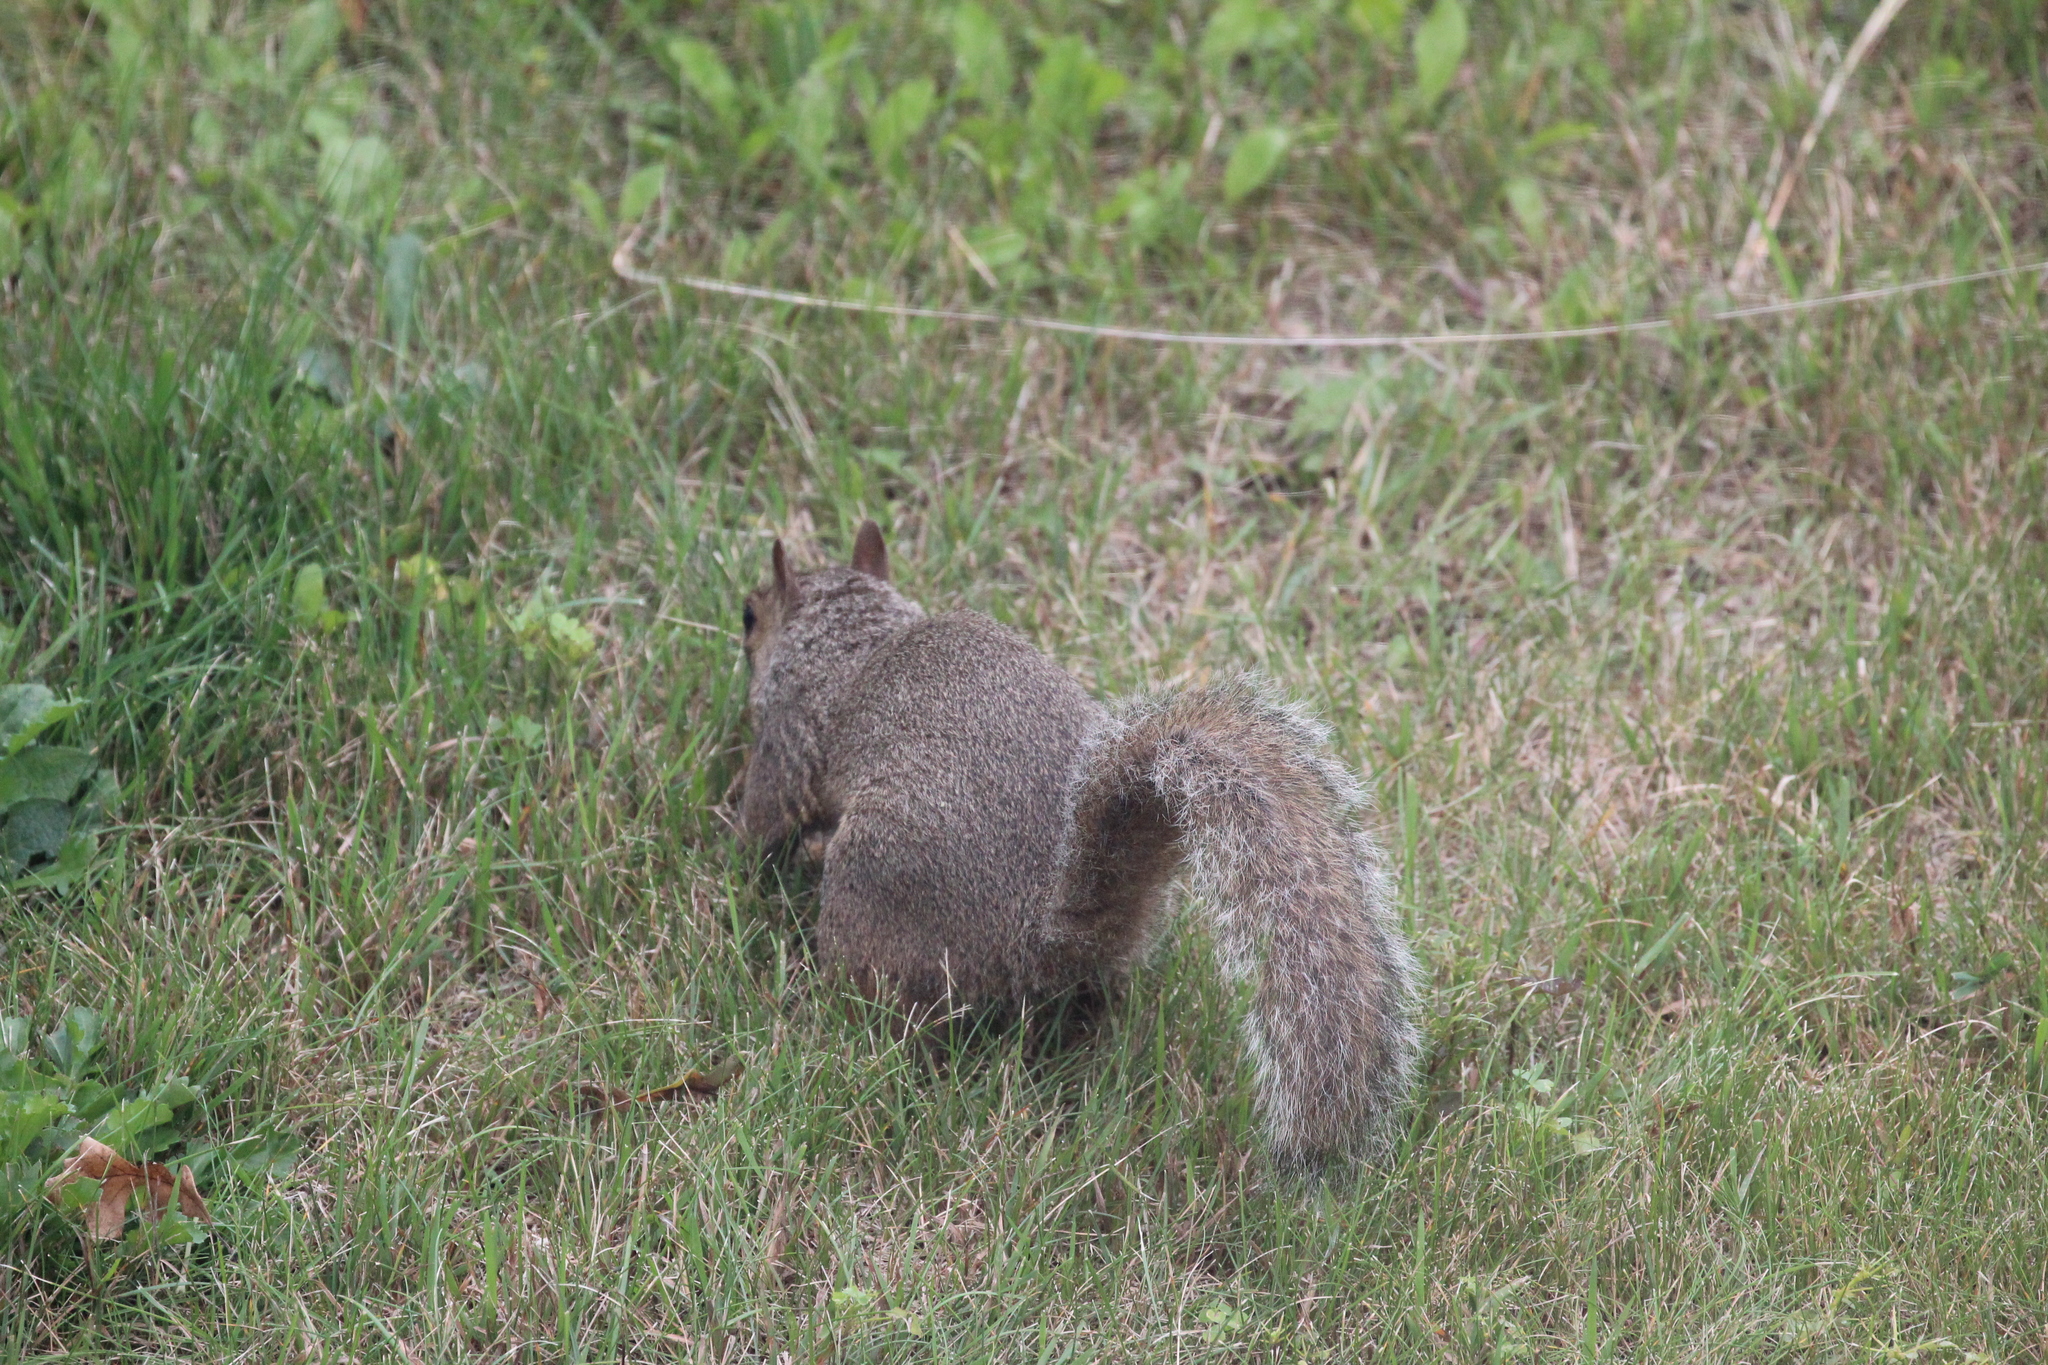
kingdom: Animalia
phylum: Chordata
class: Mammalia
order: Rodentia
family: Sciuridae
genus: Sciurus
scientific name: Sciurus carolinensis
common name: Eastern gray squirrel
